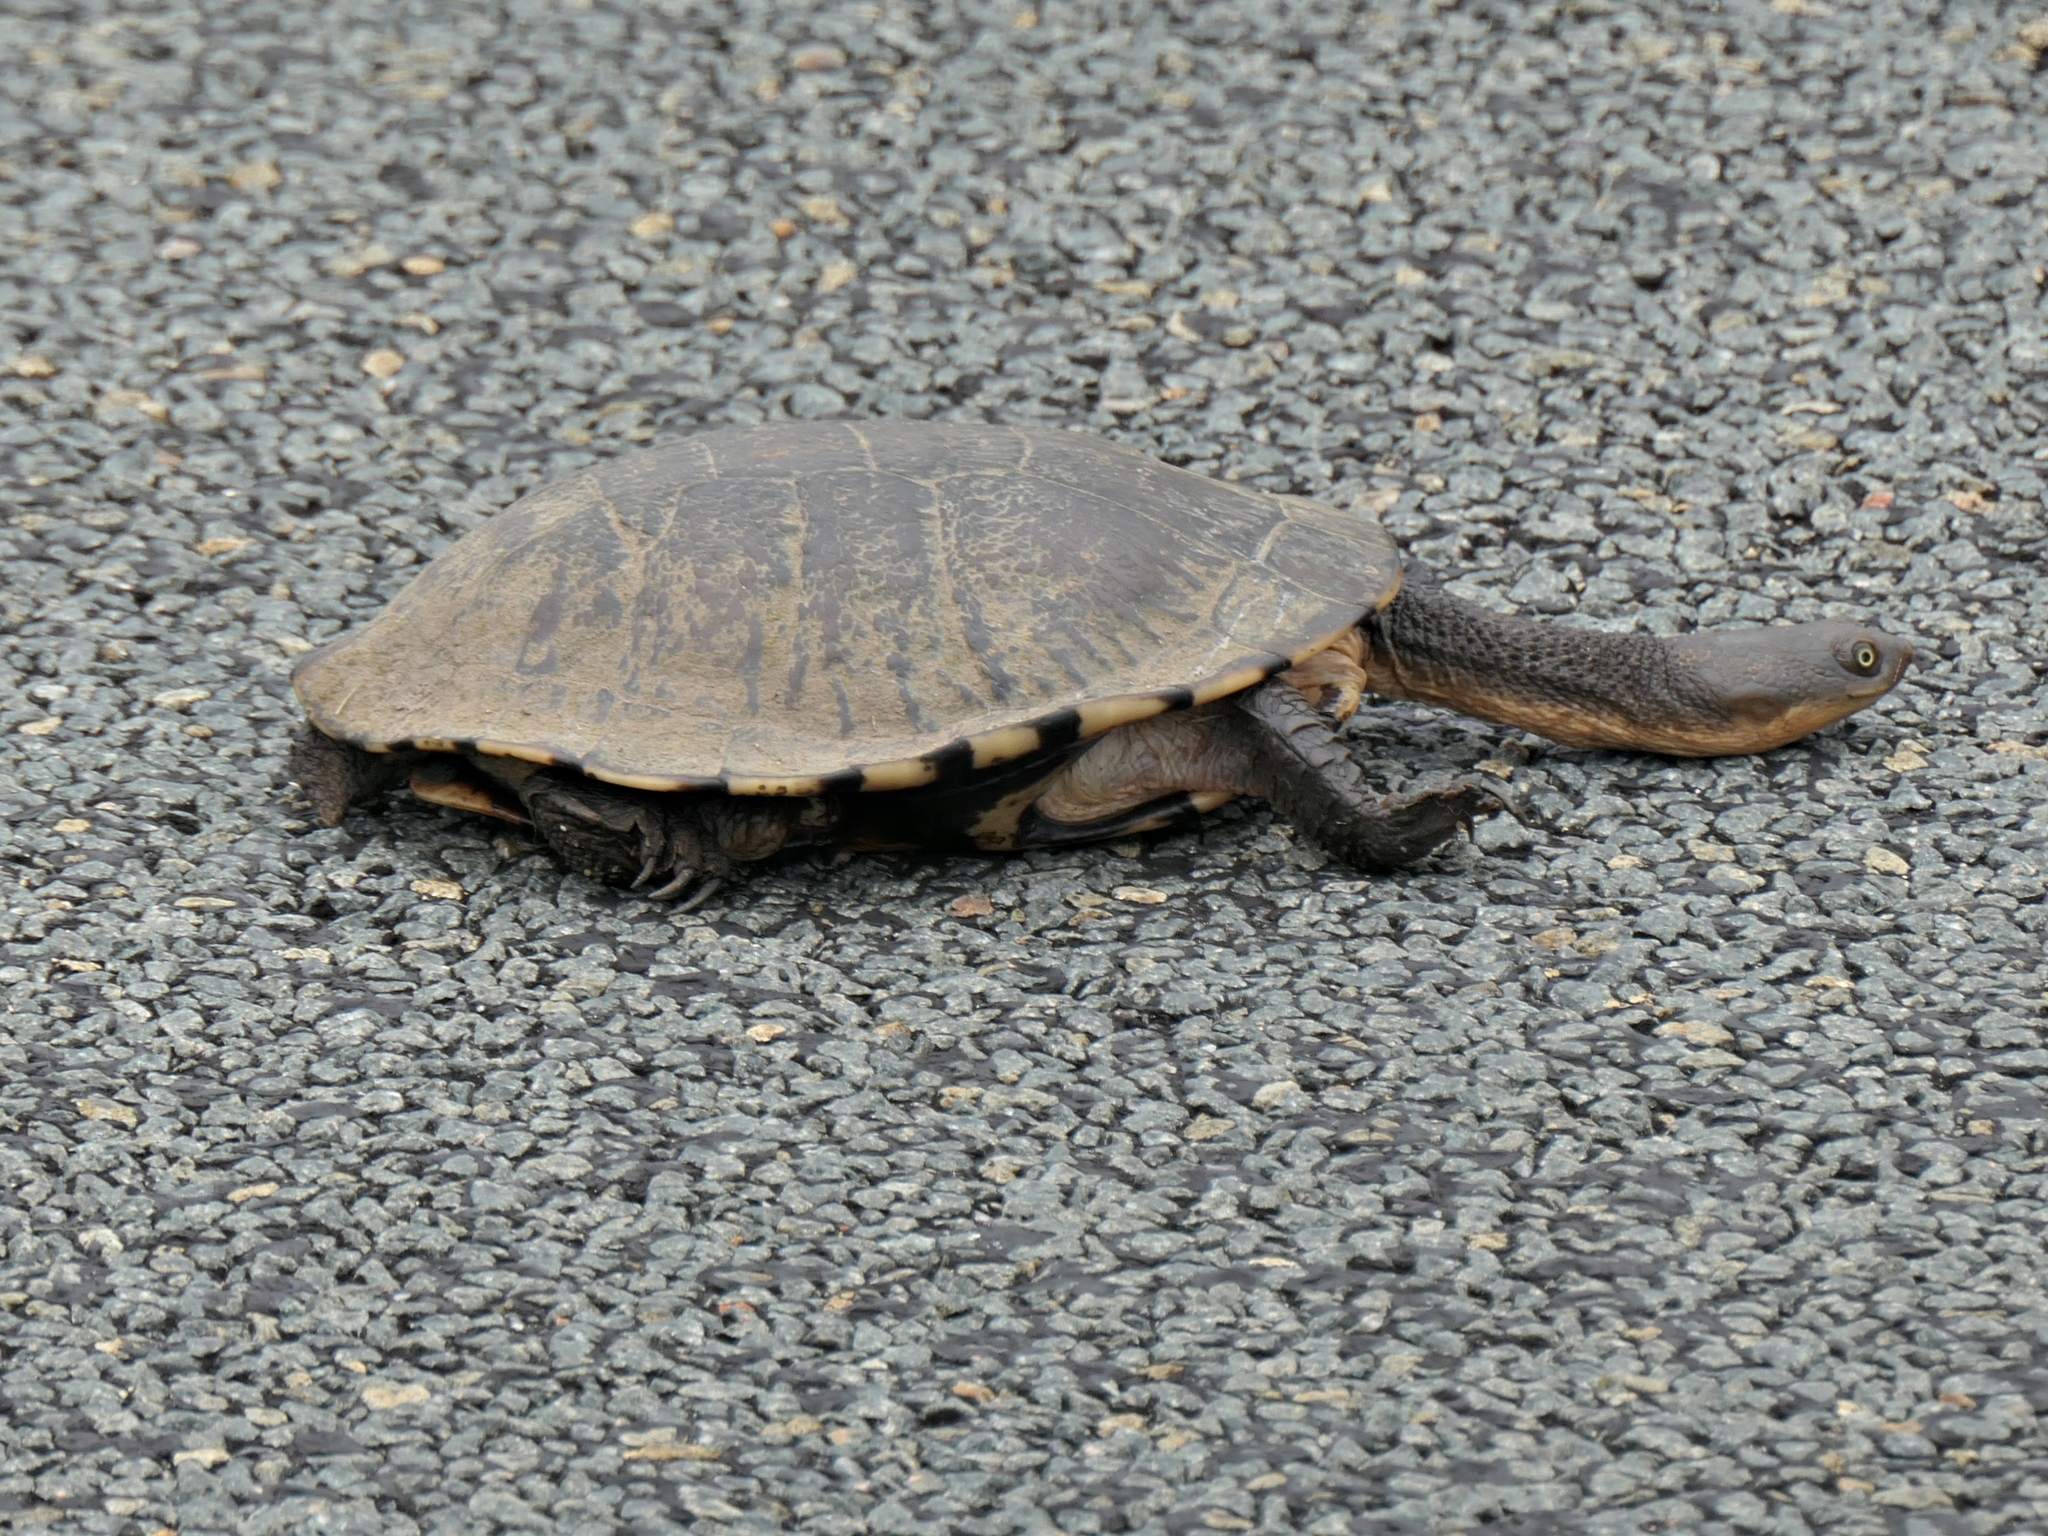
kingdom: Animalia
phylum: Chordata
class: Testudines
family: Chelidae
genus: Chelodina
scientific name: Chelodina longicollis
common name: Eastern snake-necked turtle
